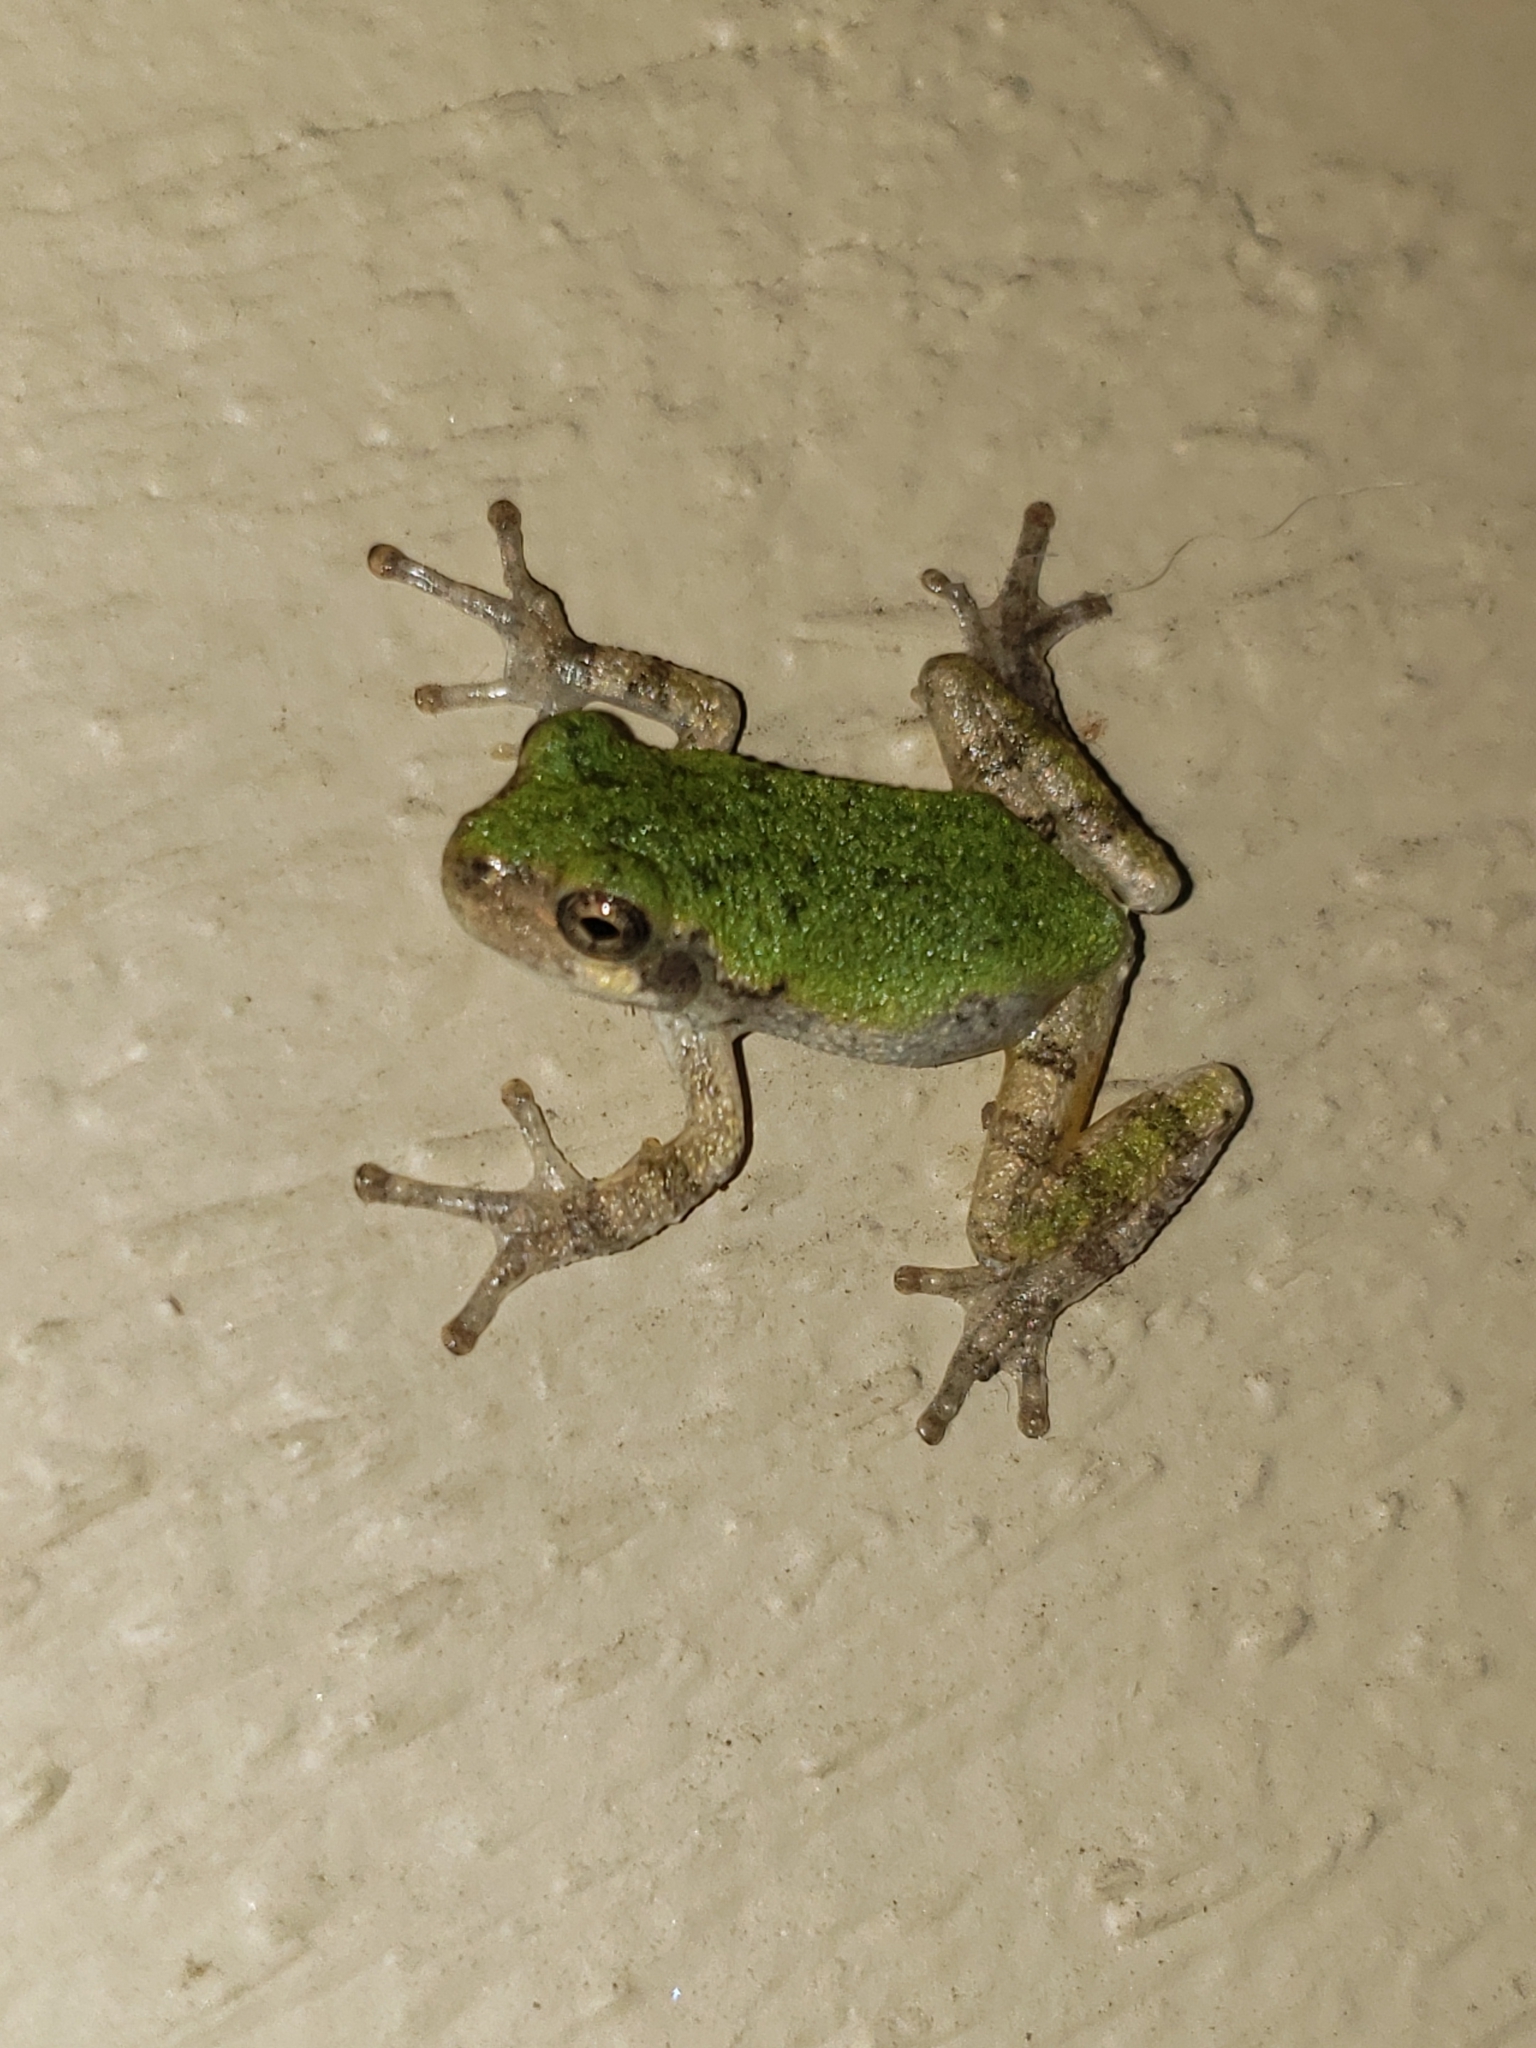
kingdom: Animalia
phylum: Chordata
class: Amphibia
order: Anura
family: Hylidae
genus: Hyla
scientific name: Hyla
